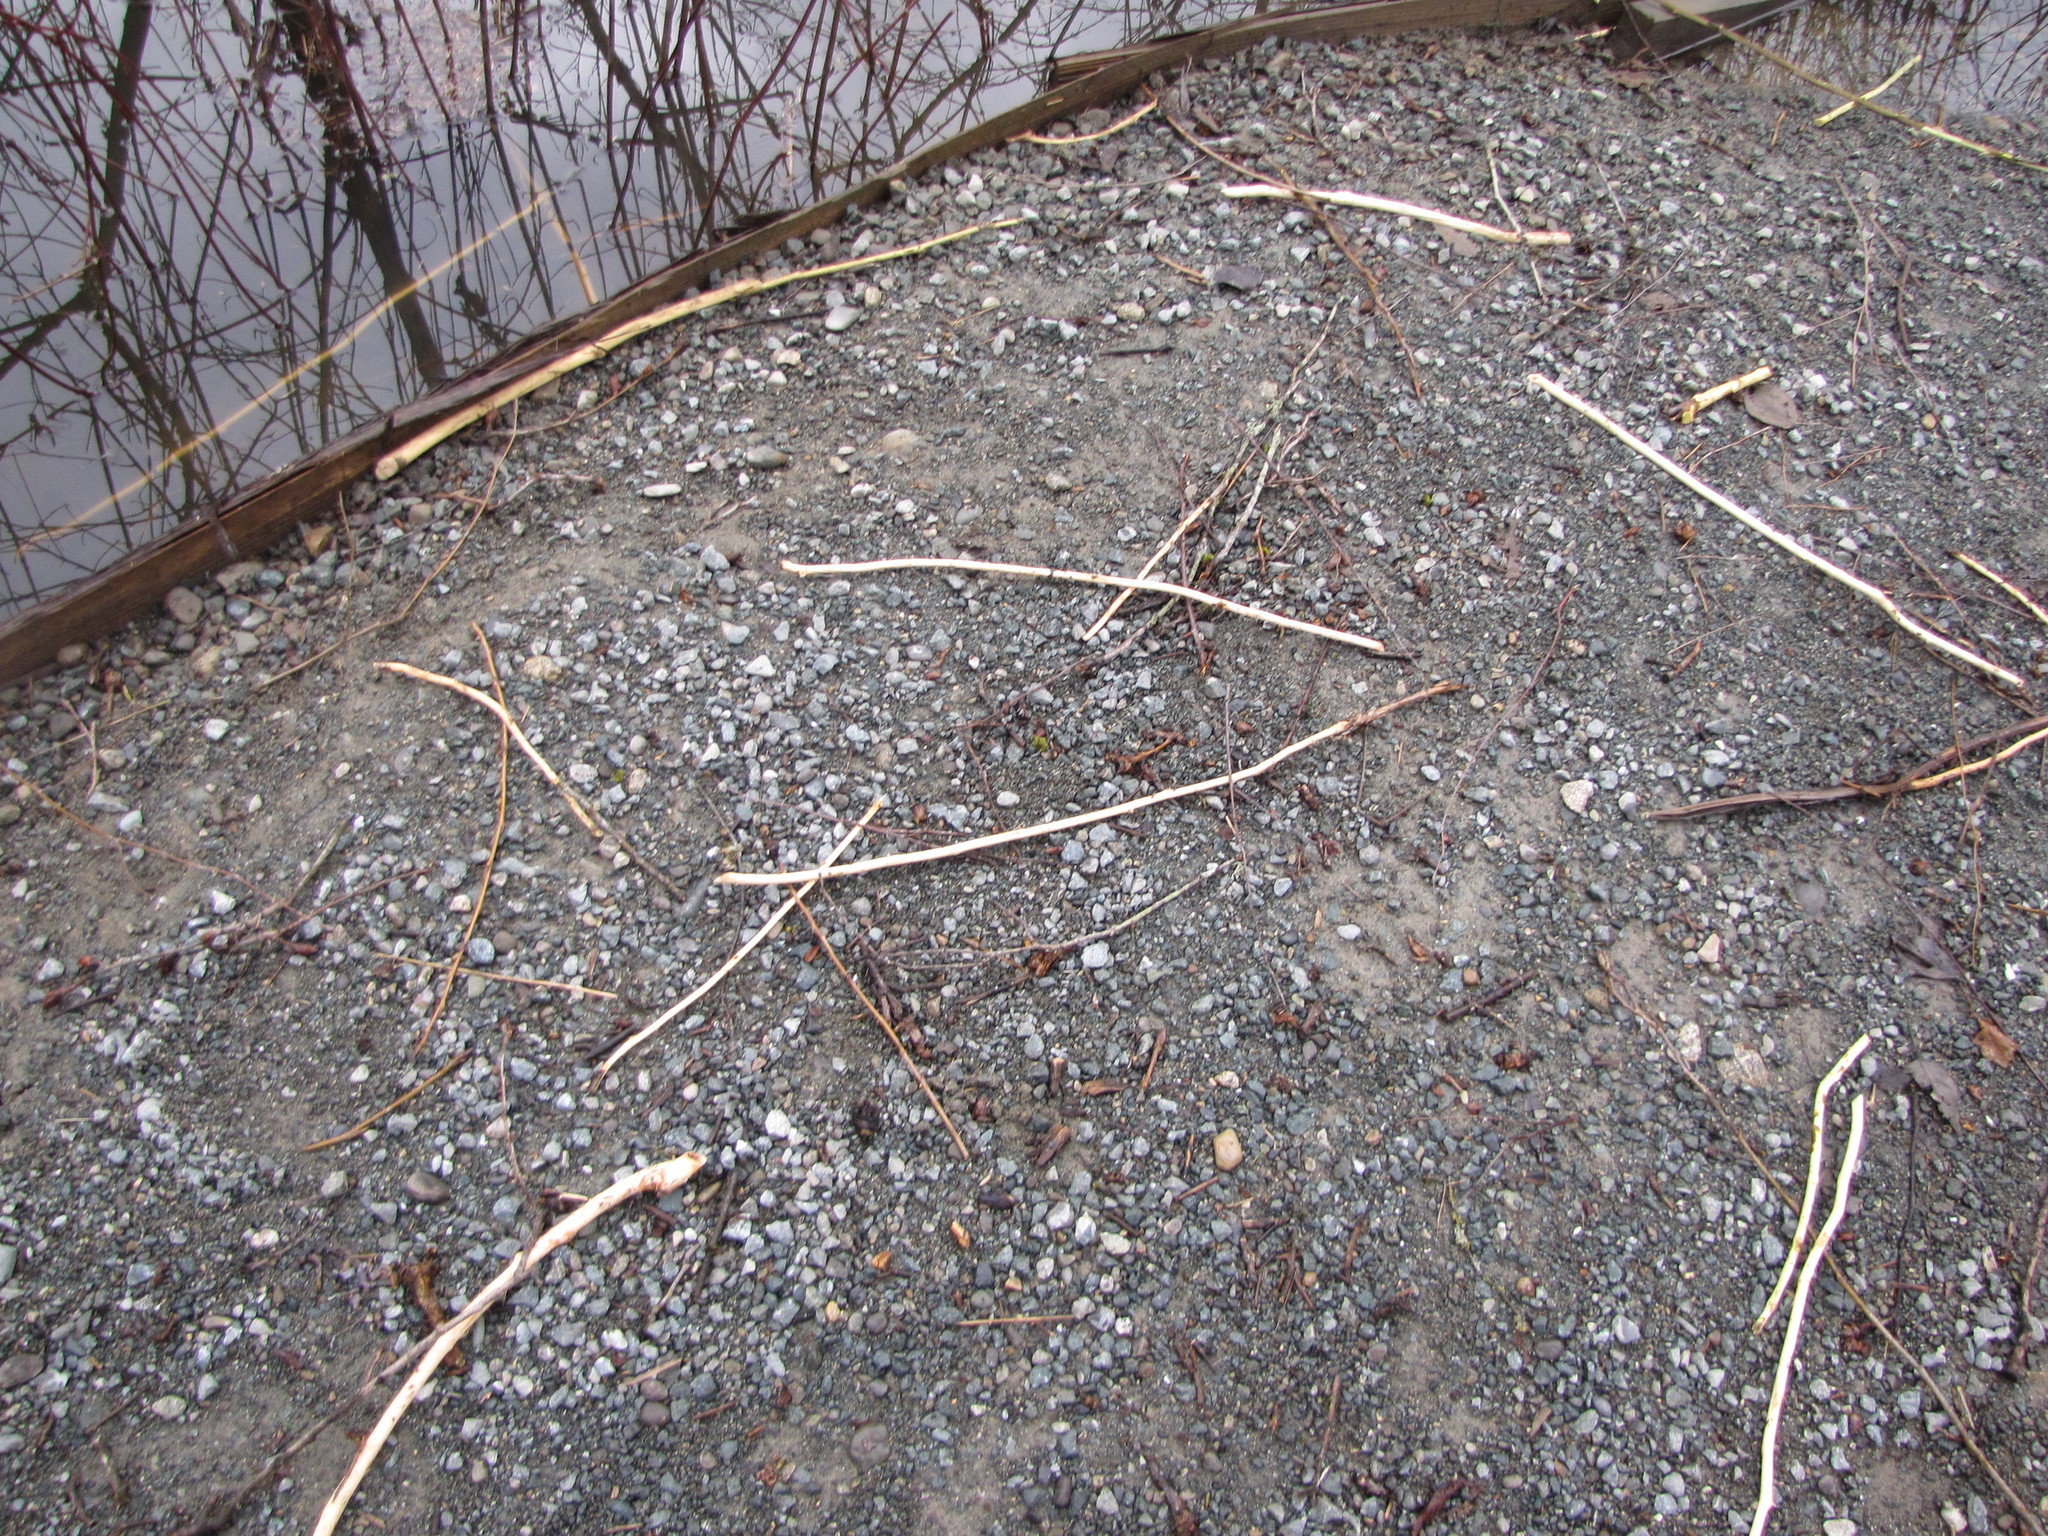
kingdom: Animalia
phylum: Chordata
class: Mammalia
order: Rodentia
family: Castoridae
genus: Castor
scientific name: Castor canadensis
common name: American beaver
